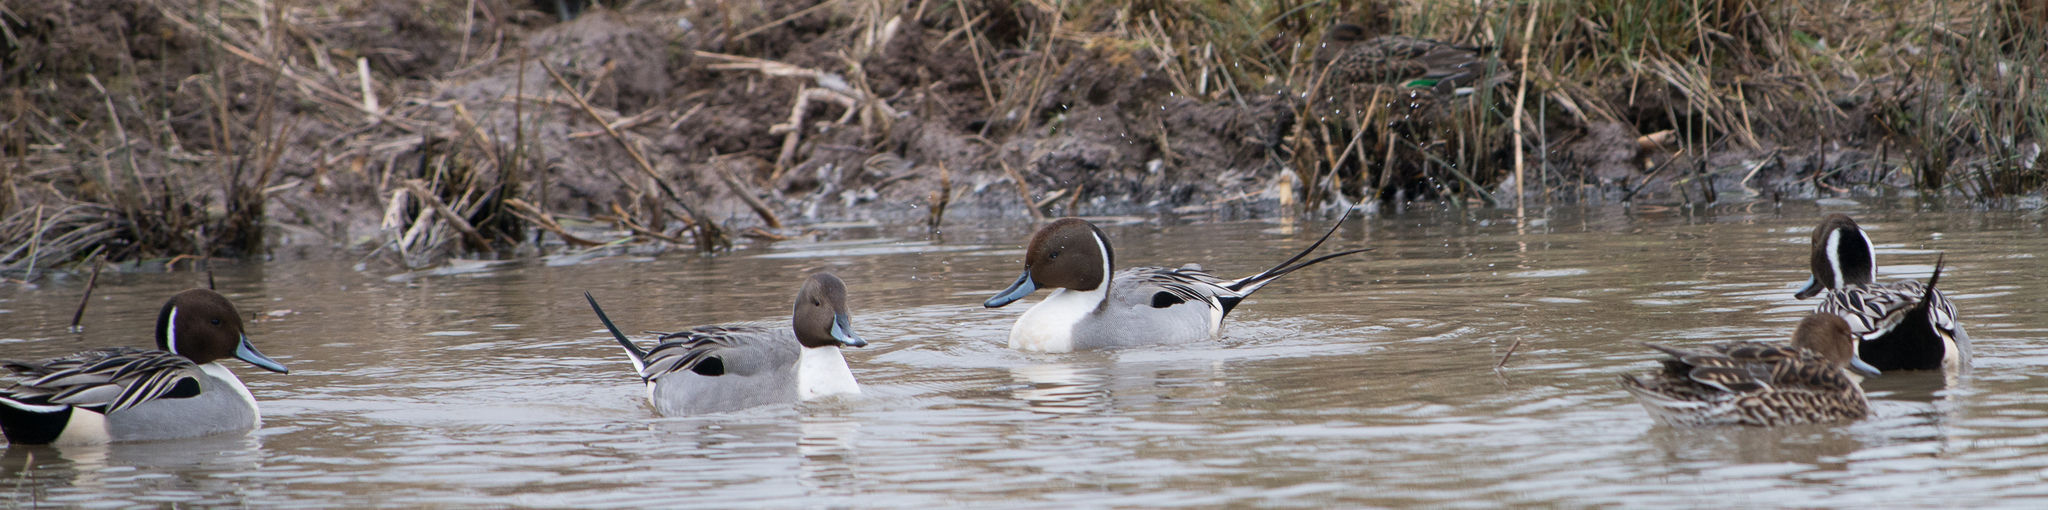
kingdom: Animalia
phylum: Chordata
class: Aves
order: Anseriformes
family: Anatidae
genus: Anas
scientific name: Anas acuta
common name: Northern pintail
